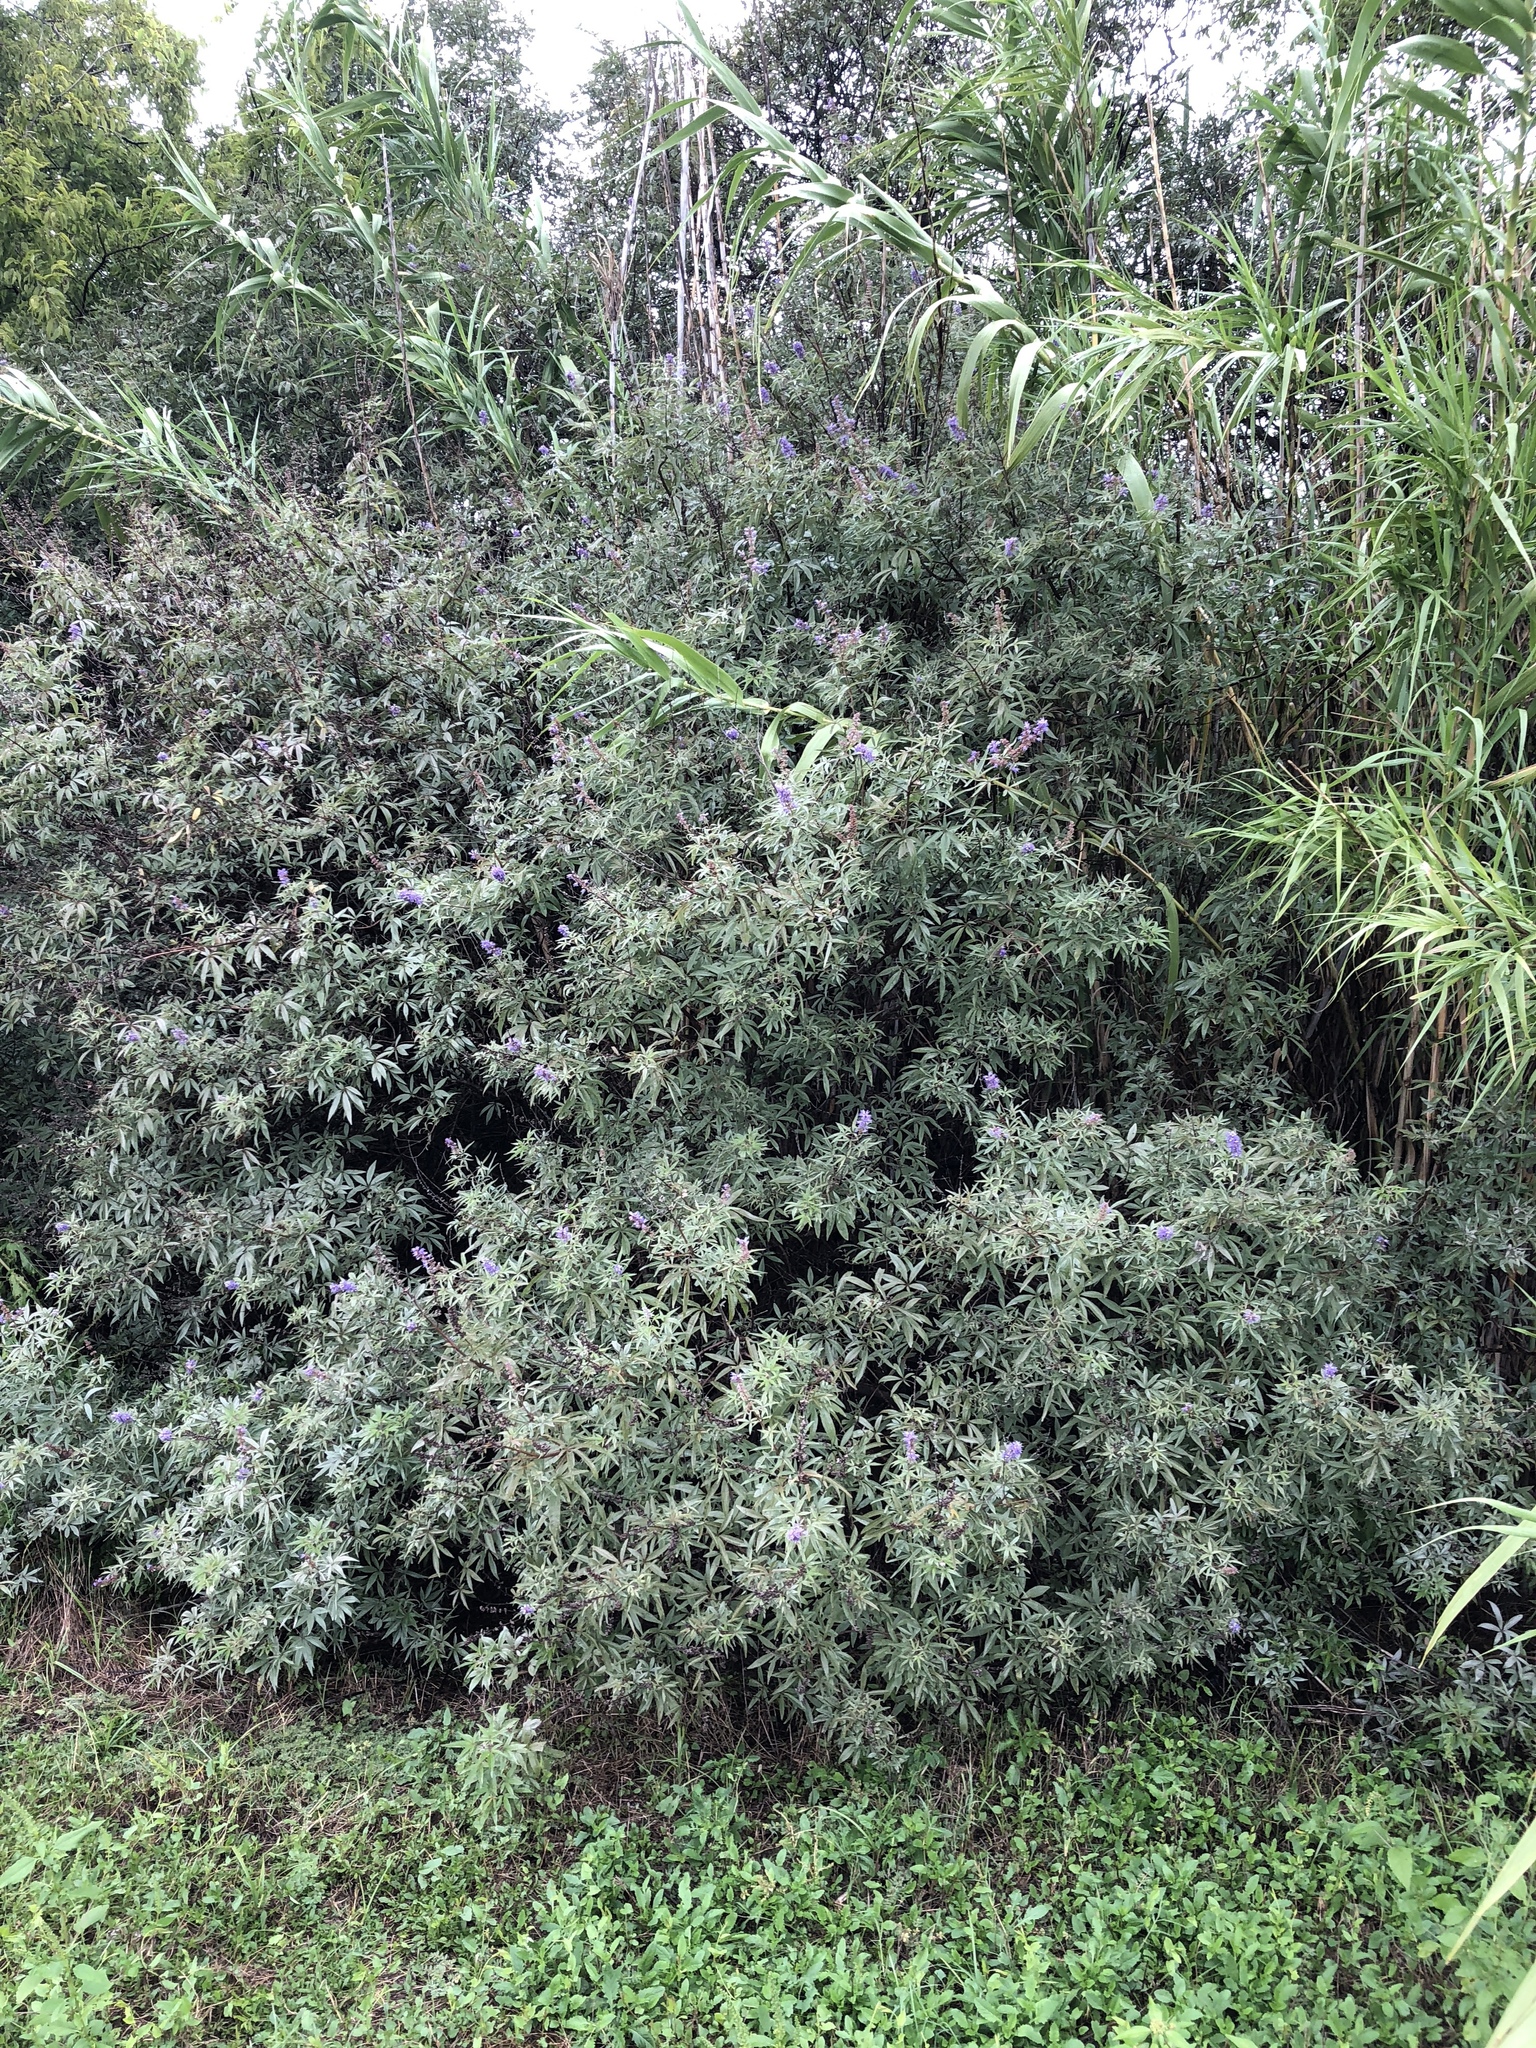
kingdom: Plantae
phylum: Tracheophyta
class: Magnoliopsida
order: Lamiales
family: Lamiaceae
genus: Vitex
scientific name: Vitex agnus-castus
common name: Chasteberry
